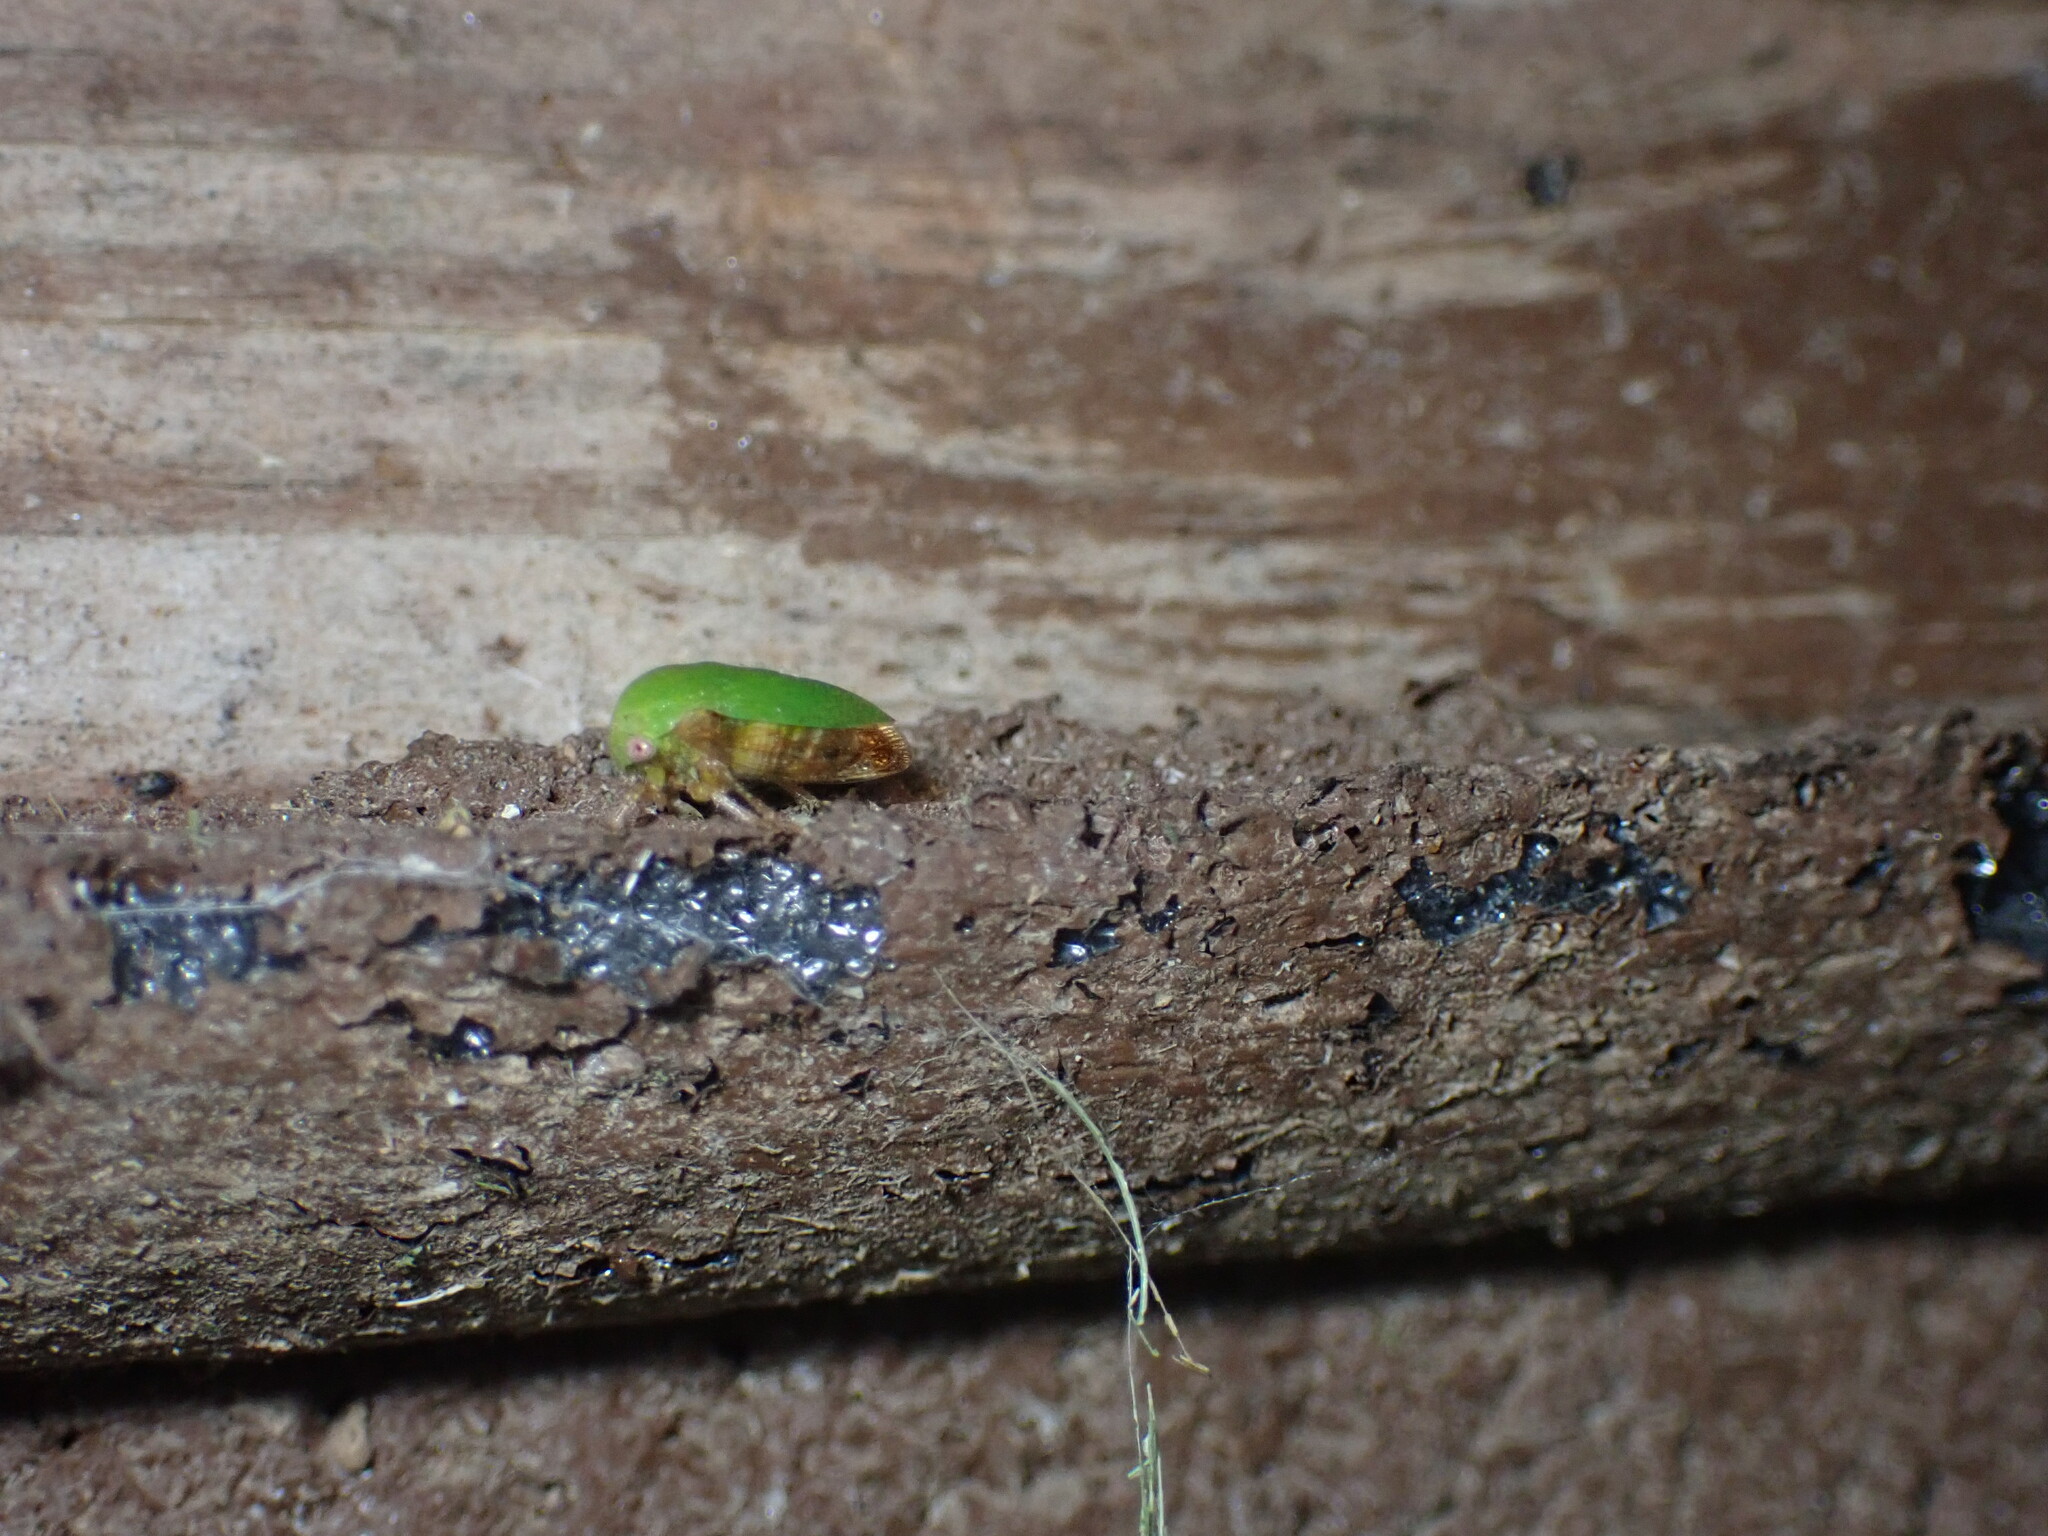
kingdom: Animalia
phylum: Arthropoda
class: Insecta
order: Hemiptera
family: Membracidae
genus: Ophiderma
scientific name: Ophiderma evelyna
